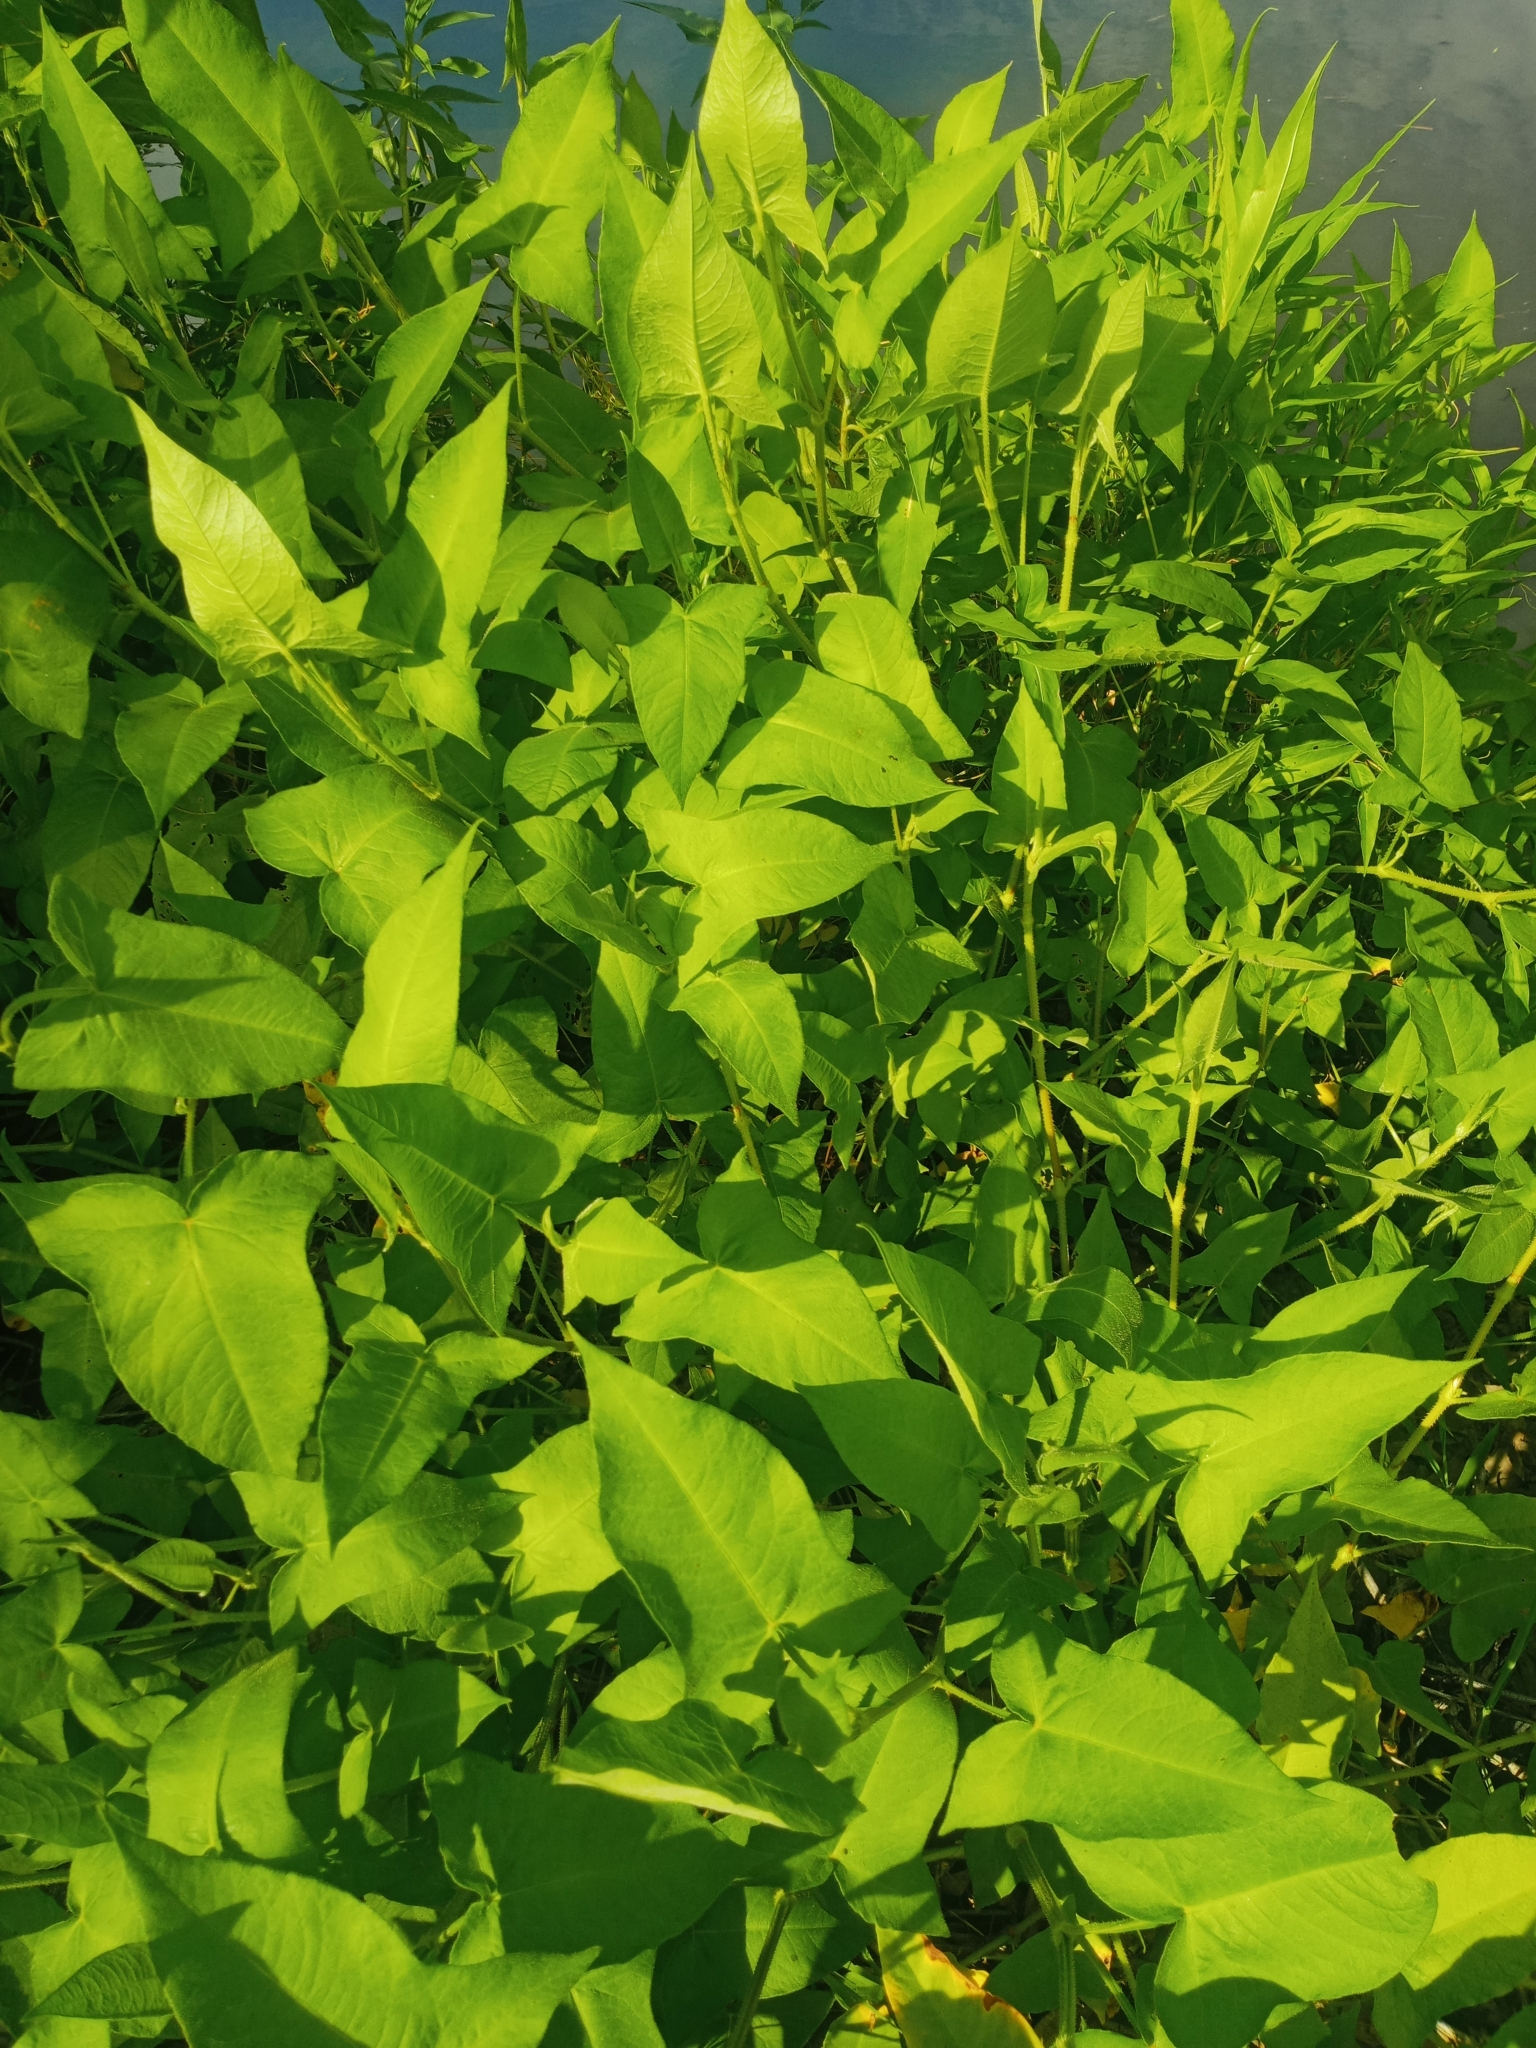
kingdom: Plantae
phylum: Tracheophyta
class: Magnoliopsida
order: Caryophyllales
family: Polygonaceae
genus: Persicaria
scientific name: Persicaria arifolia
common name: Halberd-leaved tear-thumb
